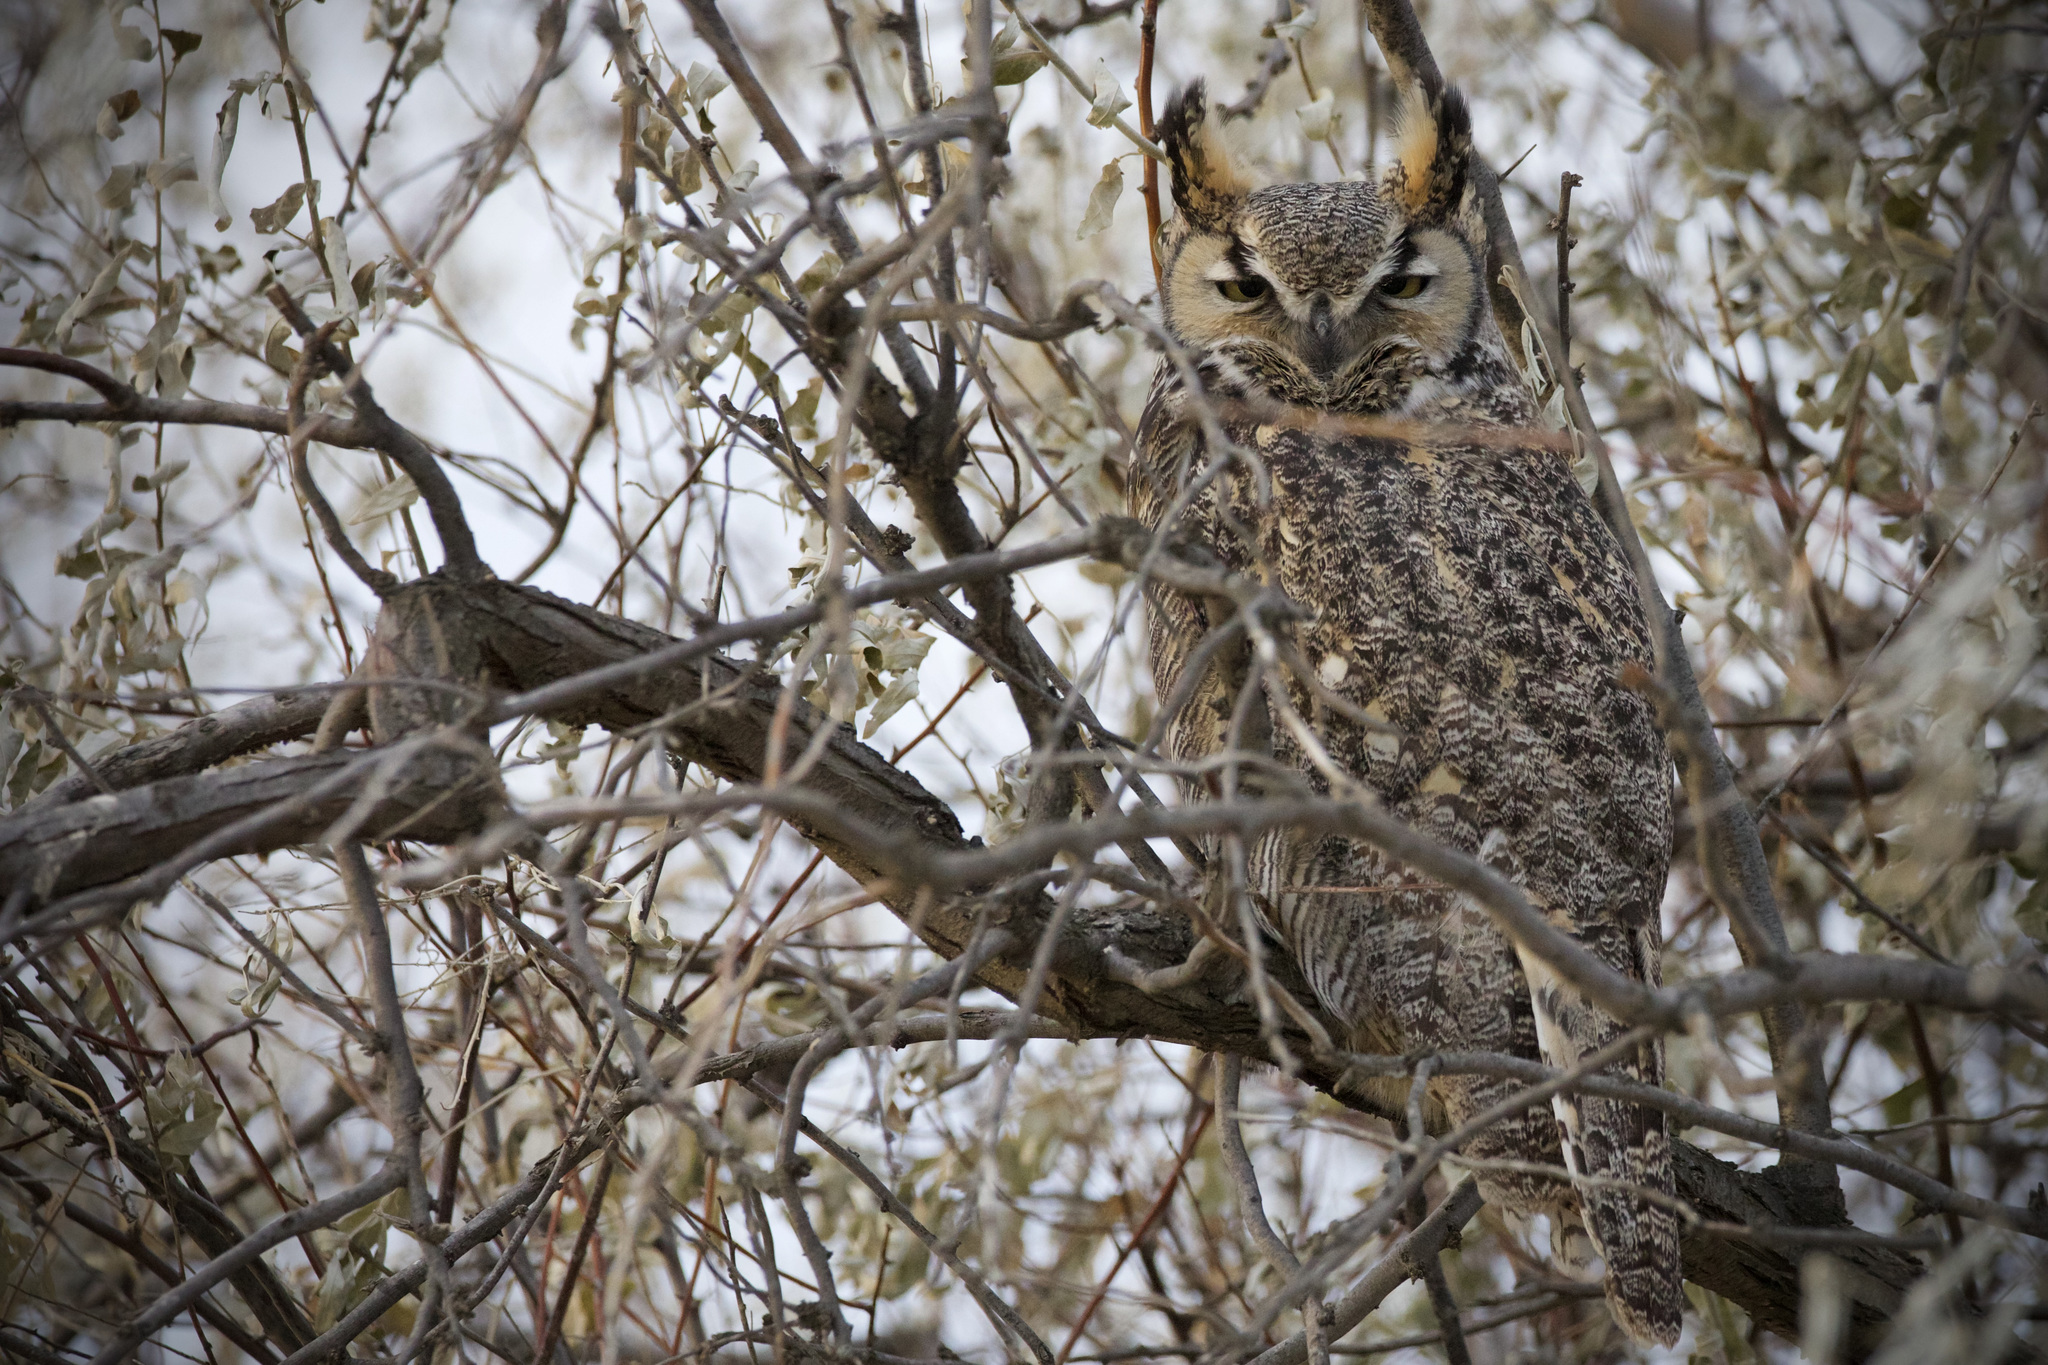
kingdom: Animalia
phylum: Chordata
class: Aves
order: Strigiformes
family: Strigidae
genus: Bubo
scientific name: Bubo virginianus
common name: Great horned owl
